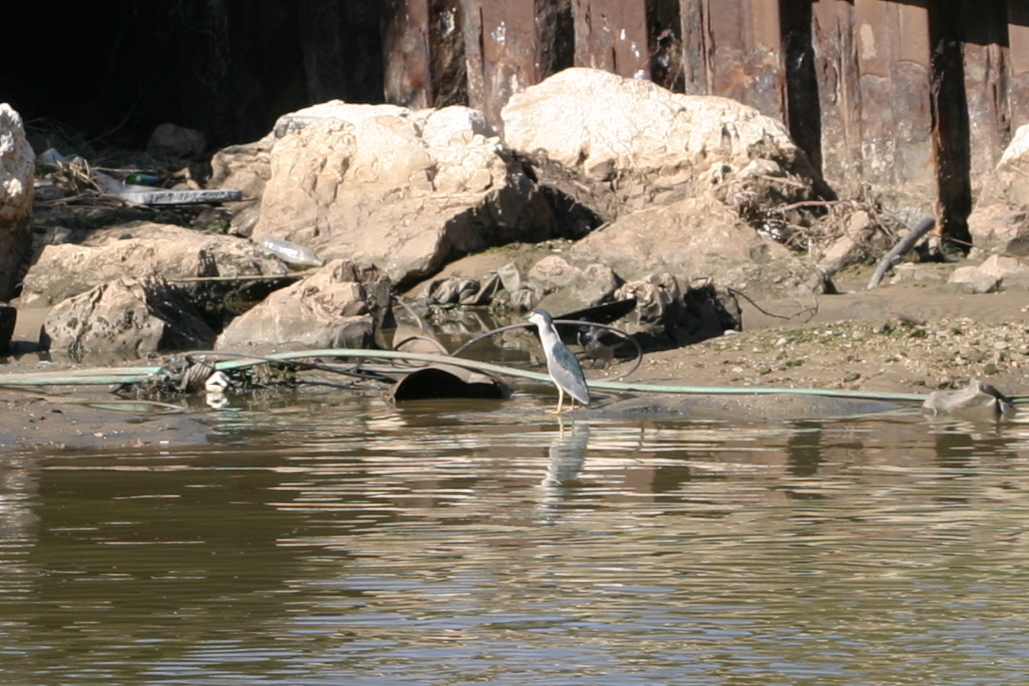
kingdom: Animalia
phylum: Chordata
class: Aves
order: Pelecaniformes
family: Ardeidae
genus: Nycticorax
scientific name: Nycticorax nycticorax
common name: Black-crowned night heron
